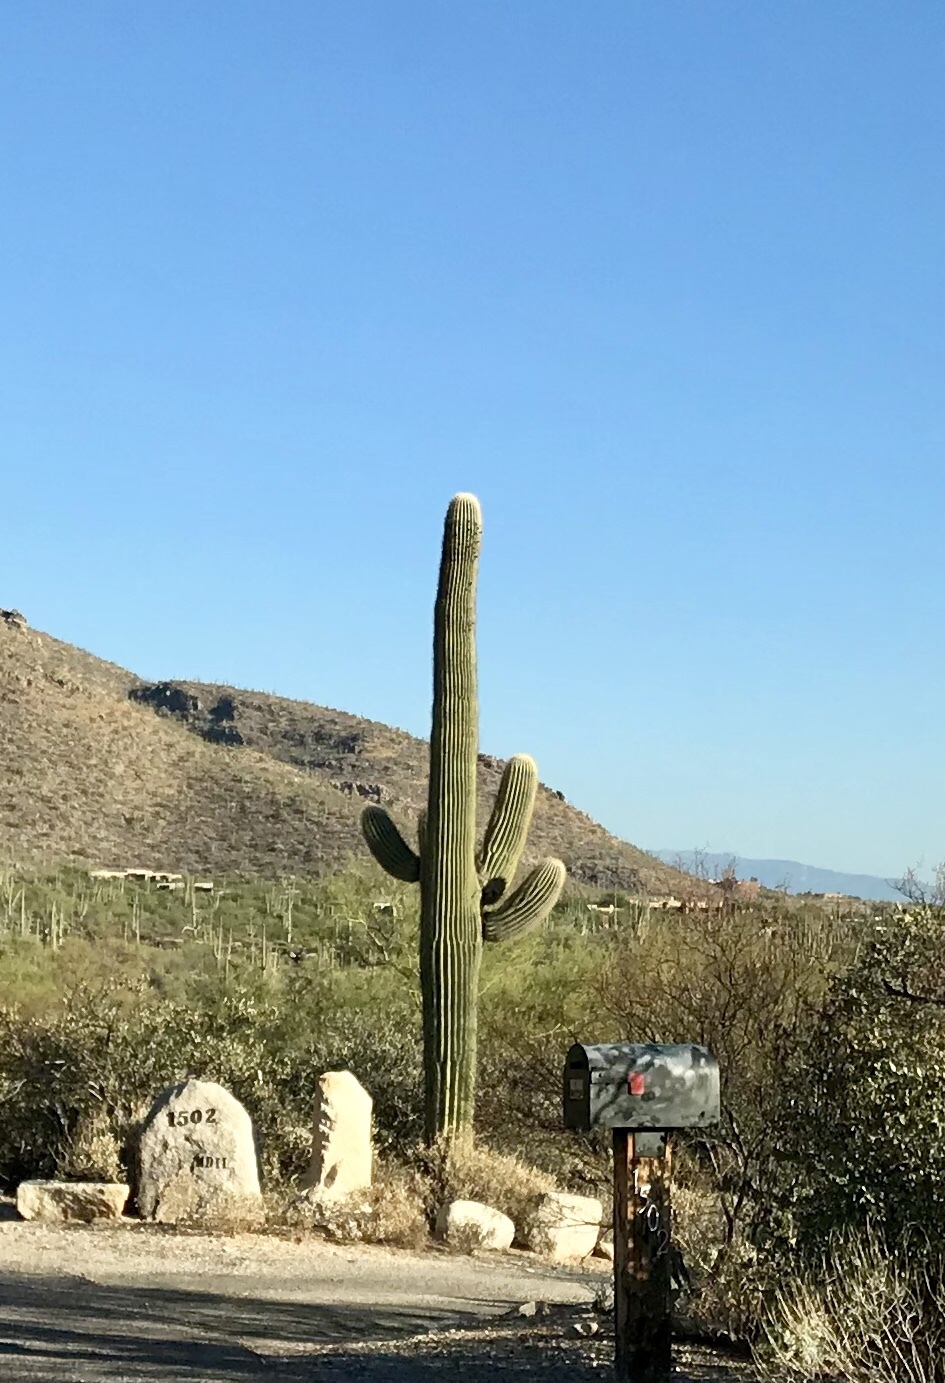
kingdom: Plantae
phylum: Tracheophyta
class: Magnoliopsida
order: Caryophyllales
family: Cactaceae
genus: Carnegiea
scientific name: Carnegiea gigantea
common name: Saguaro
